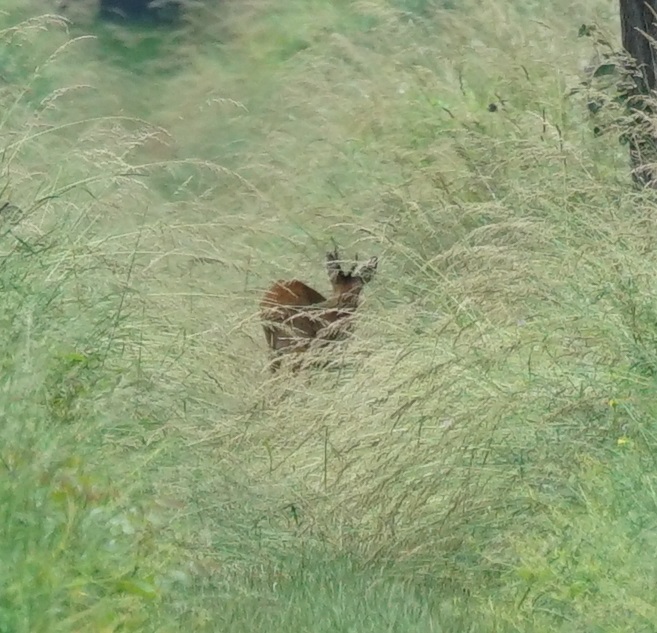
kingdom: Animalia
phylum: Chordata
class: Mammalia
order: Artiodactyla
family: Cervidae
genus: Capreolus
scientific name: Capreolus capreolus
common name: Western roe deer
